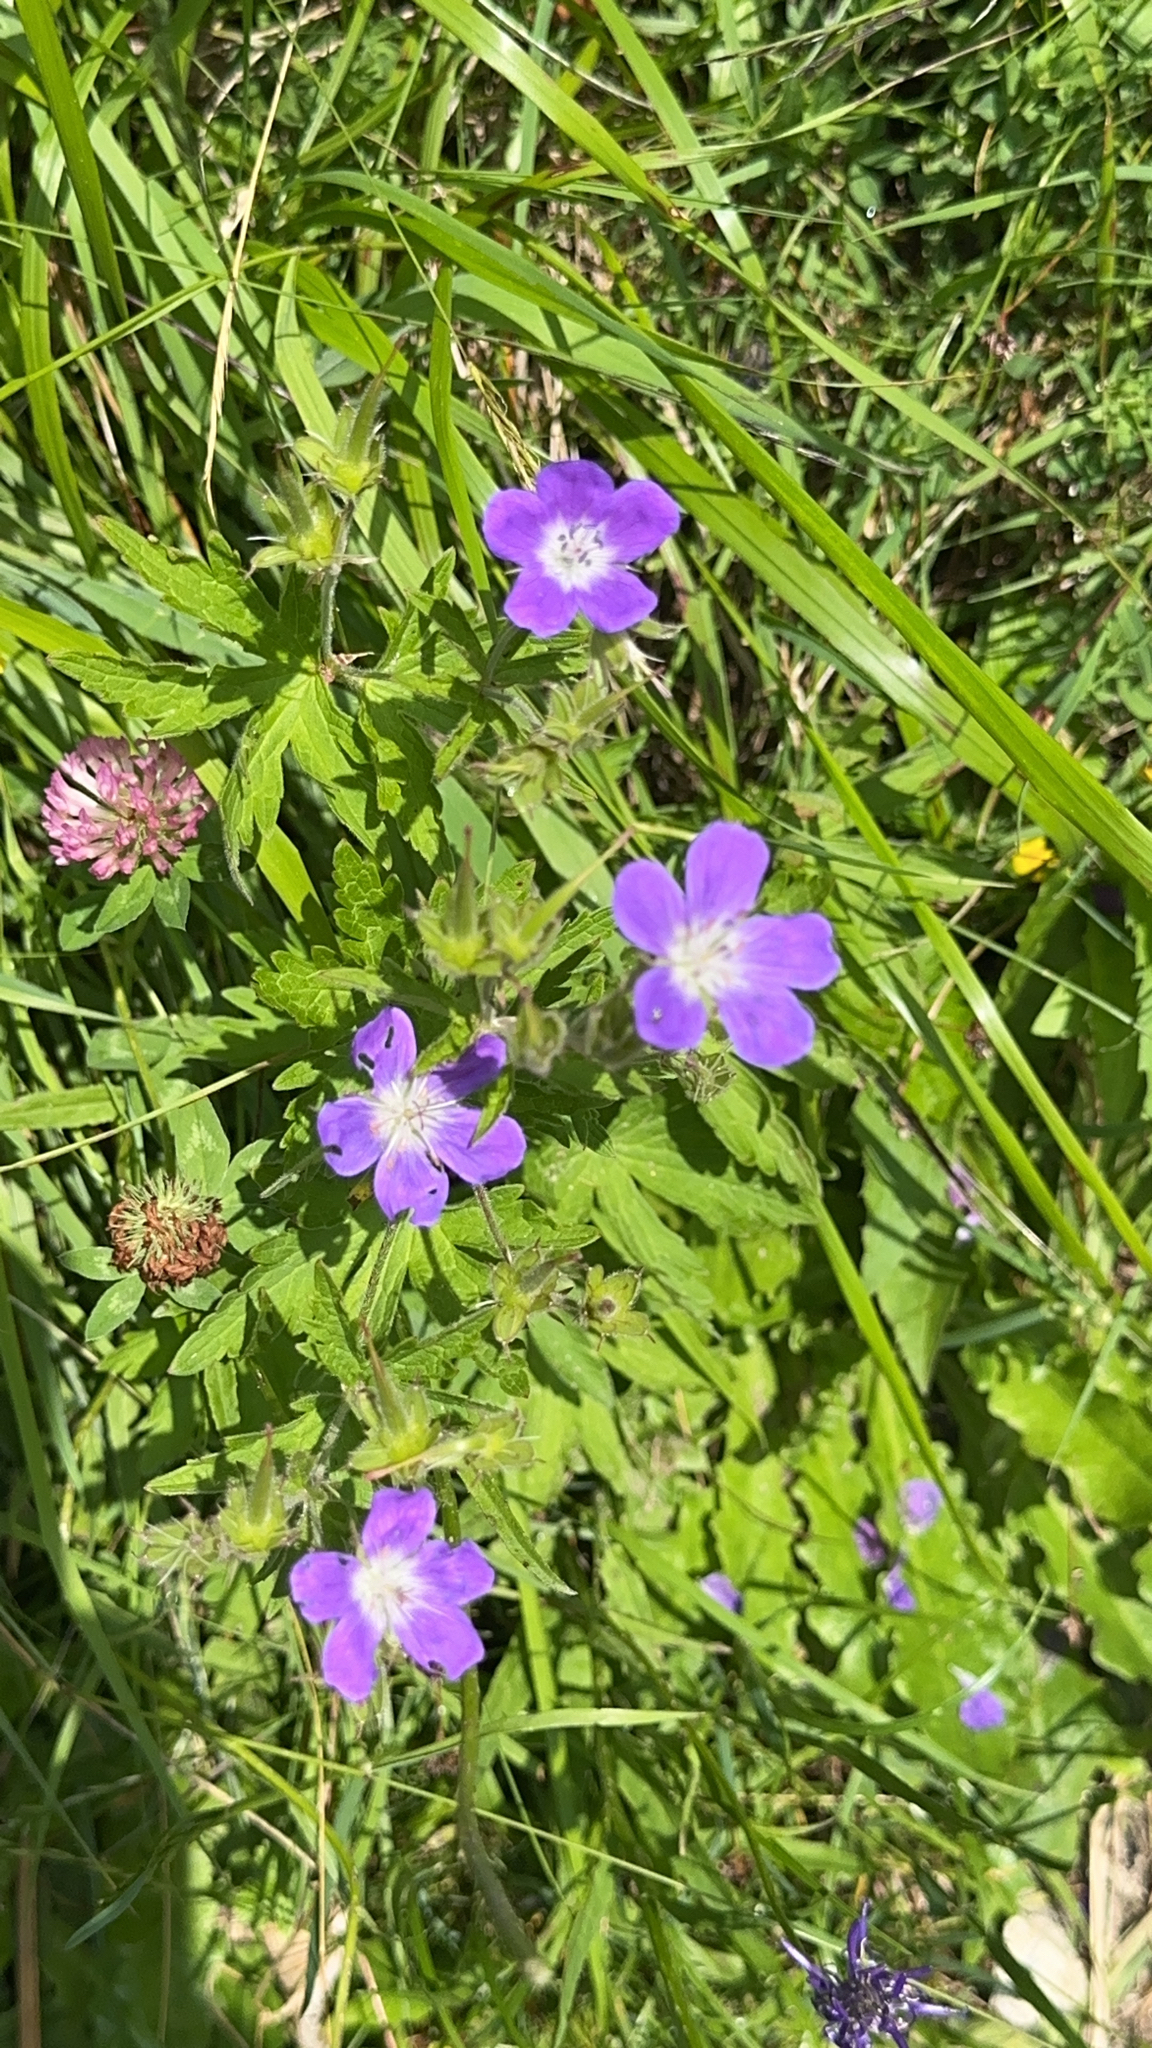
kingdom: Plantae
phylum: Tracheophyta
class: Magnoliopsida
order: Geraniales
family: Geraniaceae
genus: Geranium
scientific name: Geranium sylvaticum
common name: Wood crane's-bill
